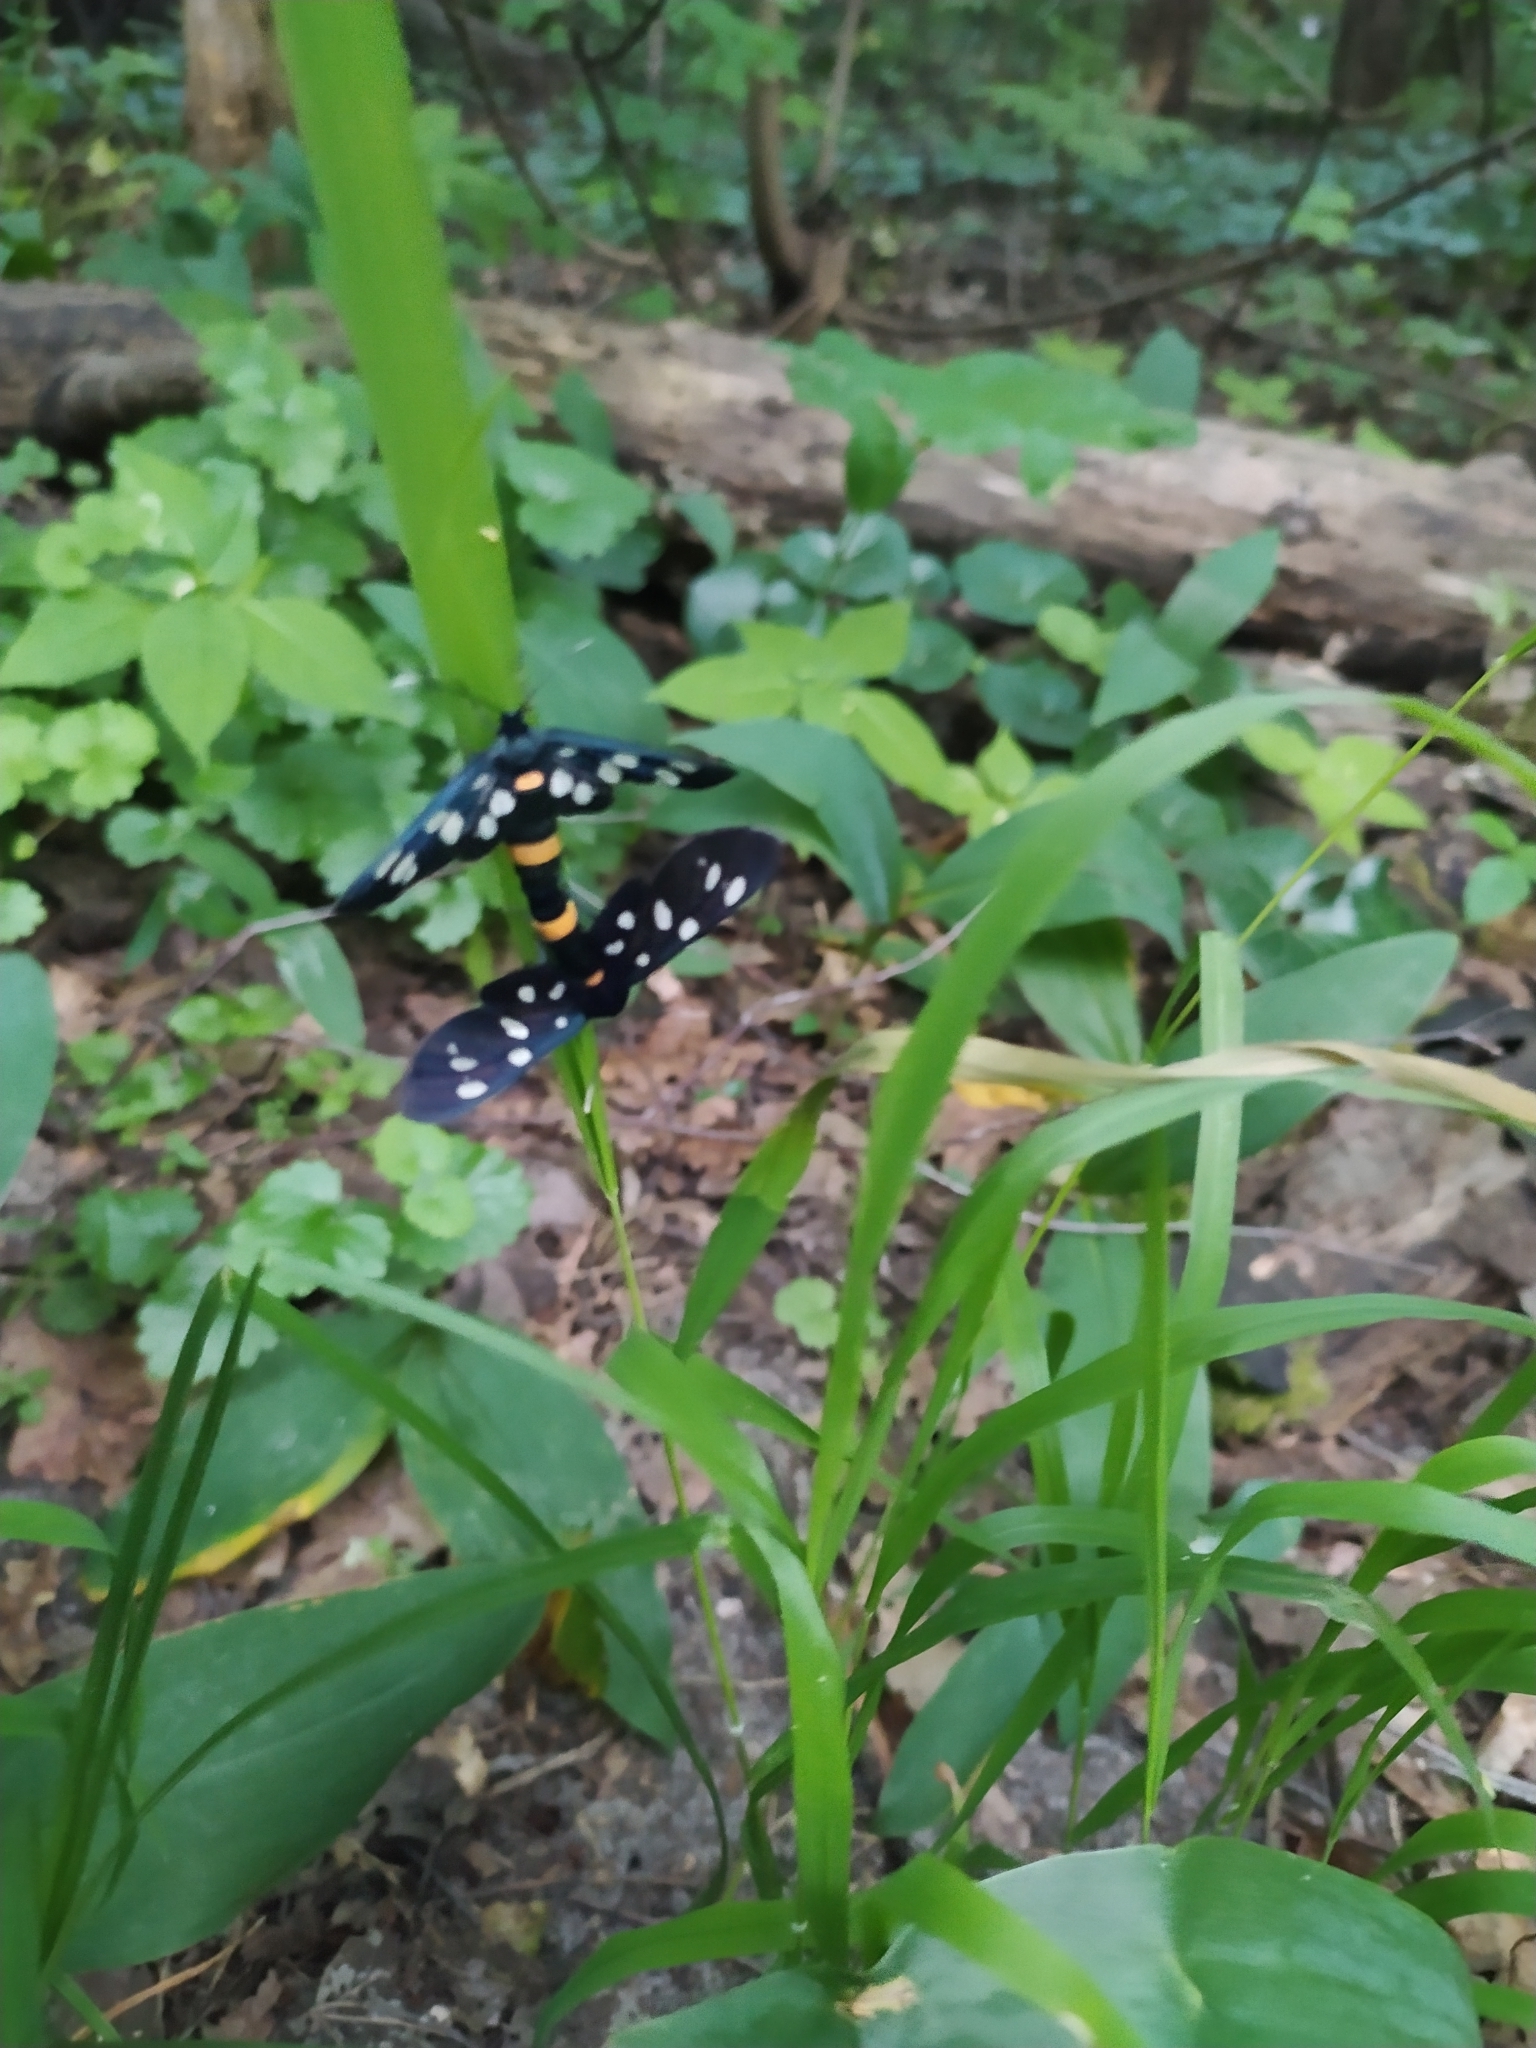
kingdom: Animalia
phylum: Arthropoda
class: Insecta
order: Lepidoptera
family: Erebidae
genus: Amata
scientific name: Amata phegea
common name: Nine-spotted
